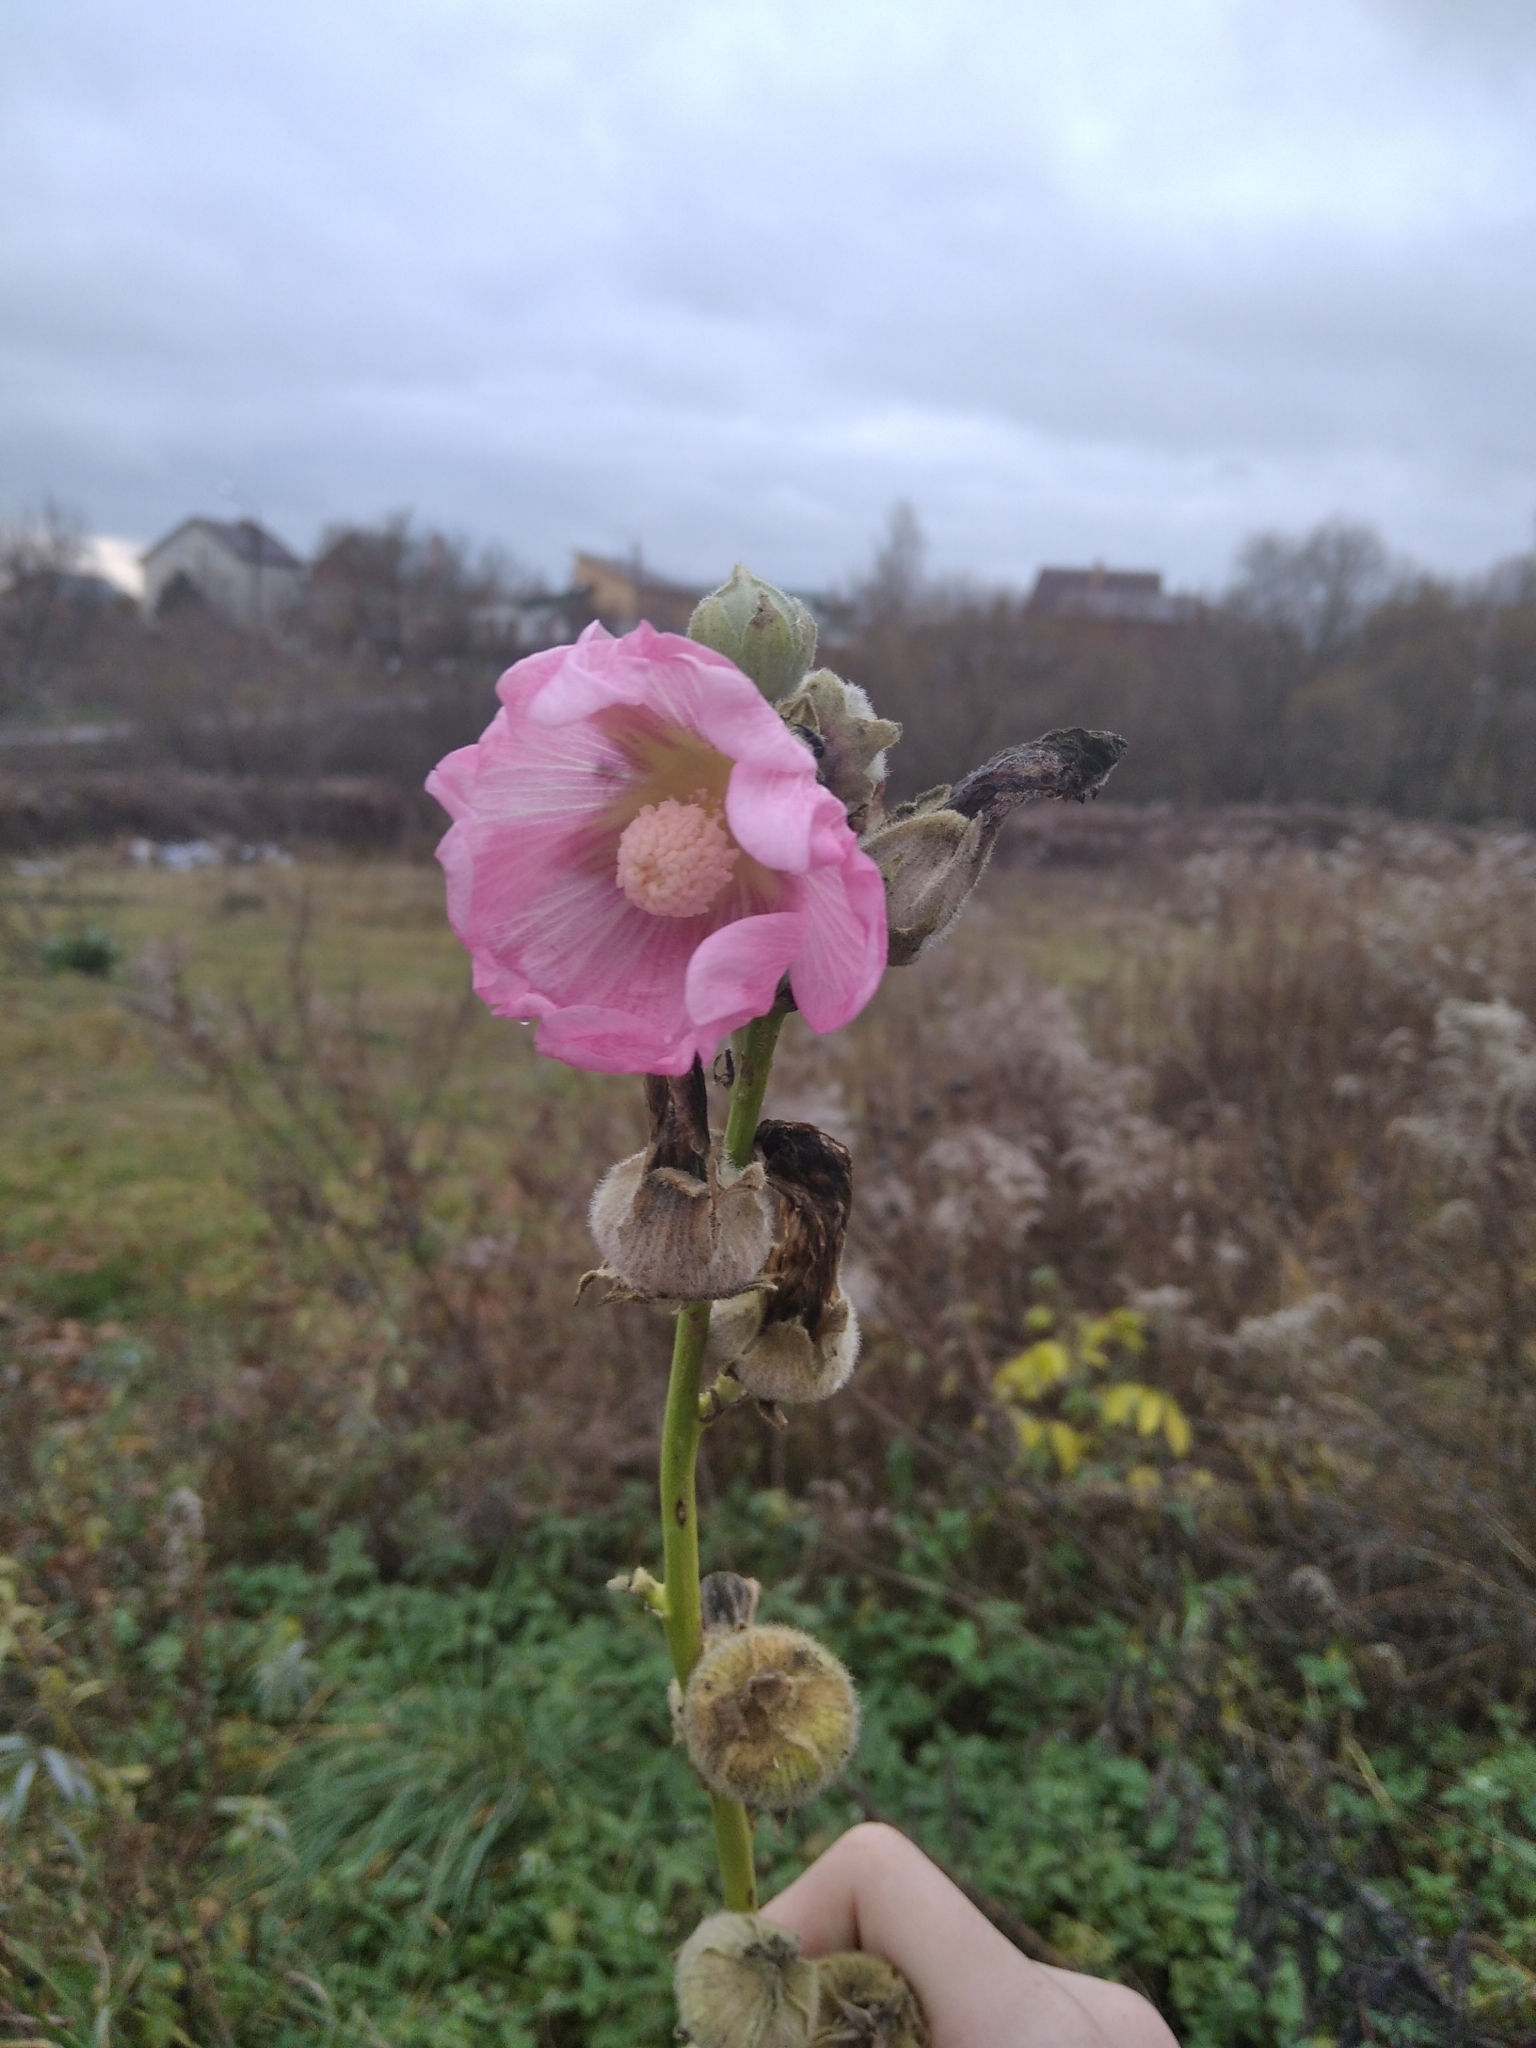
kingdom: Plantae
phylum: Tracheophyta
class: Magnoliopsida
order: Malvales
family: Malvaceae
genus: Alcea
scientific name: Alcea rosea
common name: Hollyhock
